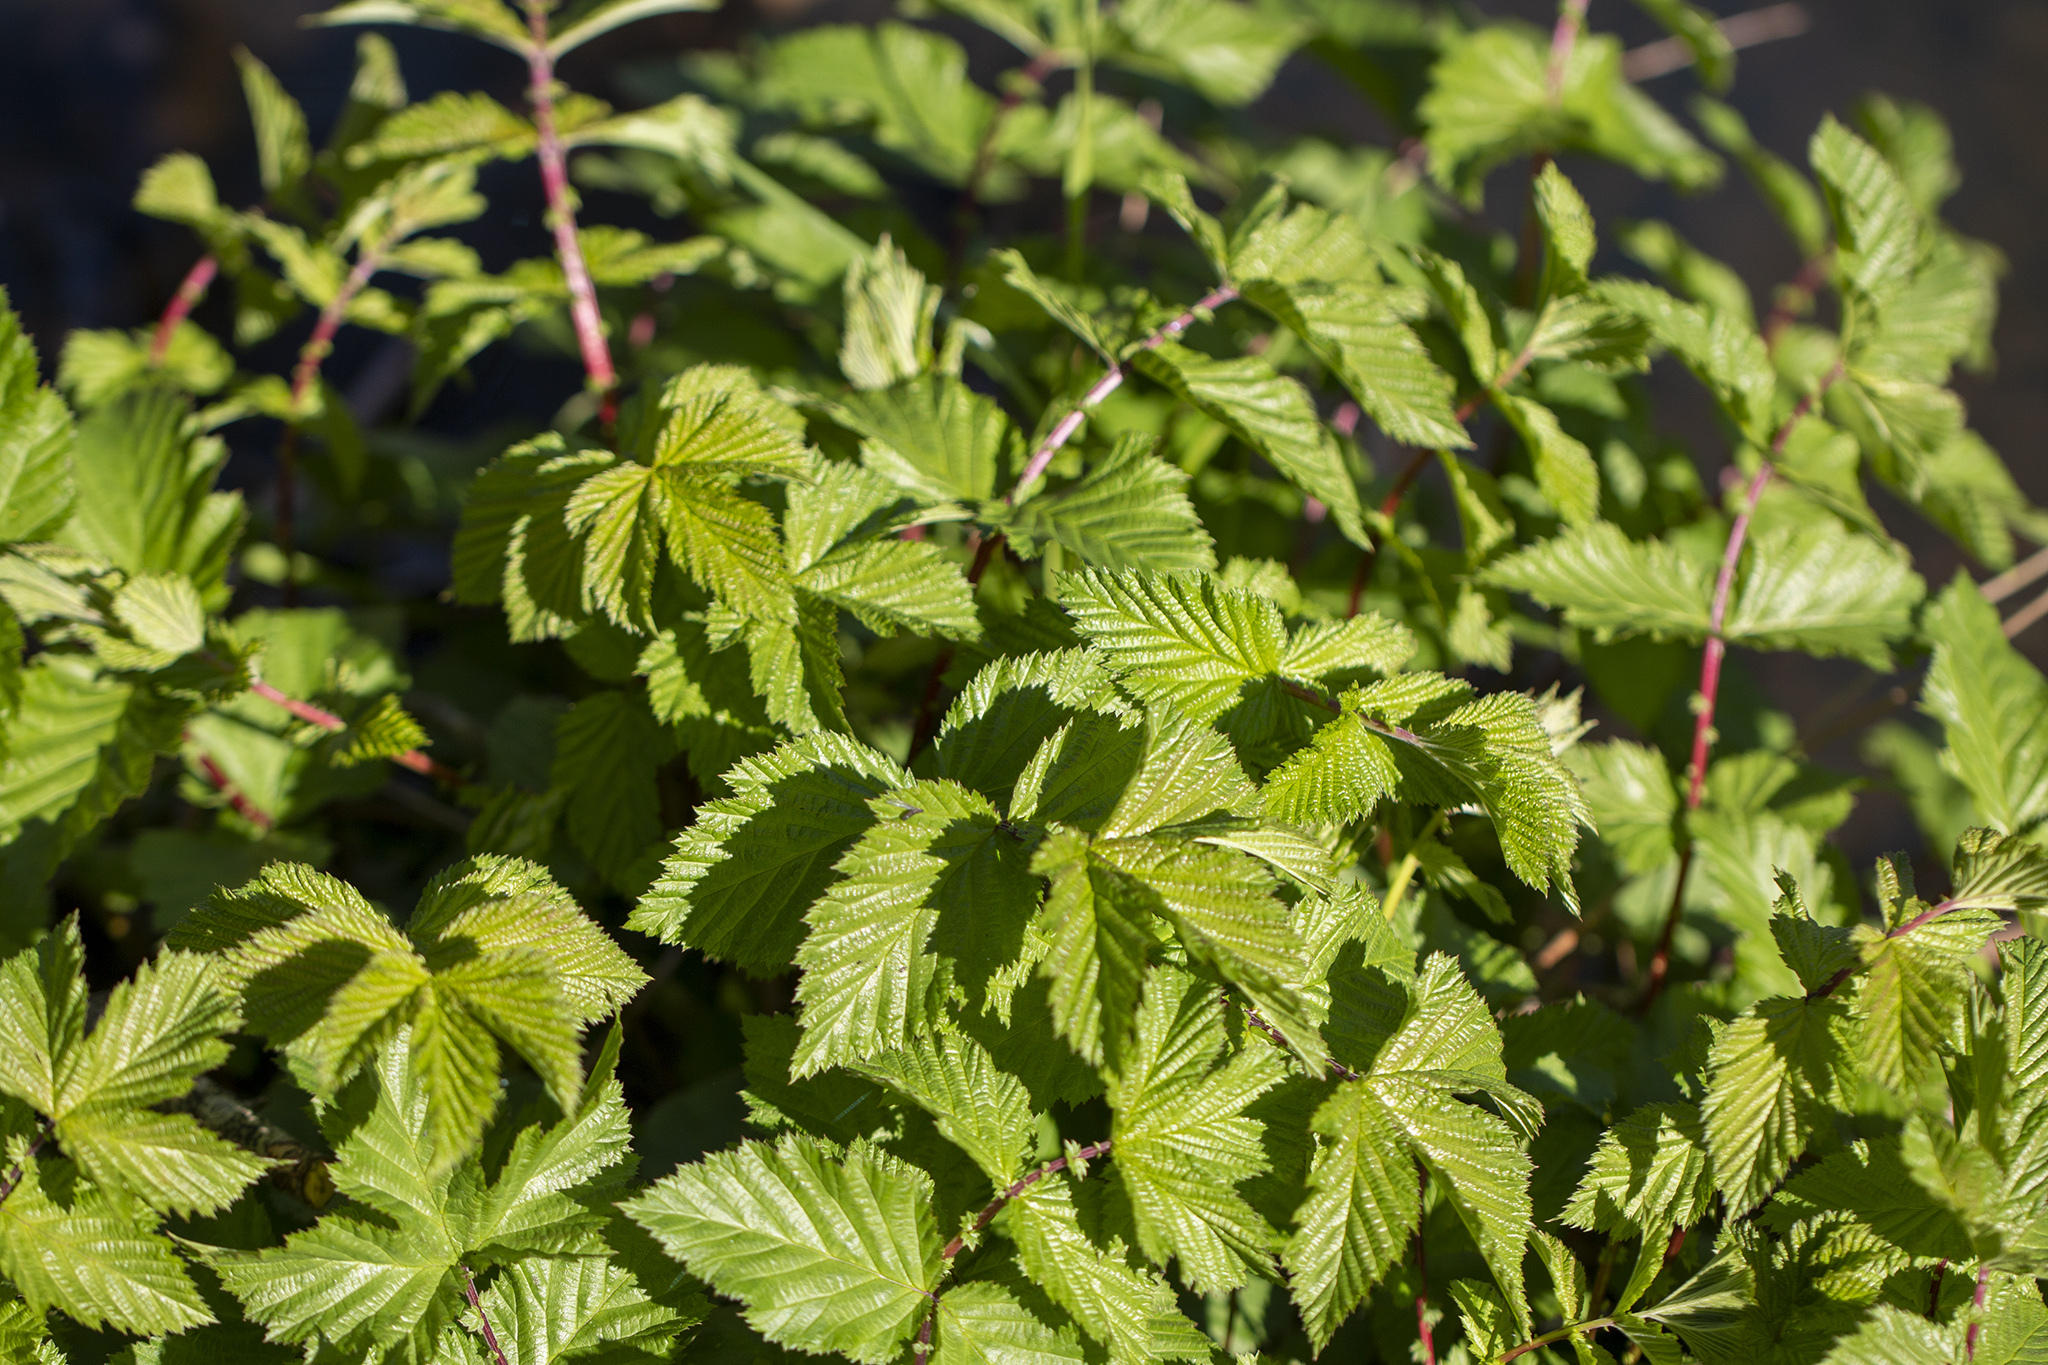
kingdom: Plantae
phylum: Tracheophyta
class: Magnoliopsida
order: Rosales
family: Rosaceae
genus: Filipendula
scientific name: Filipendula ulmaria
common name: Meadowsweet
